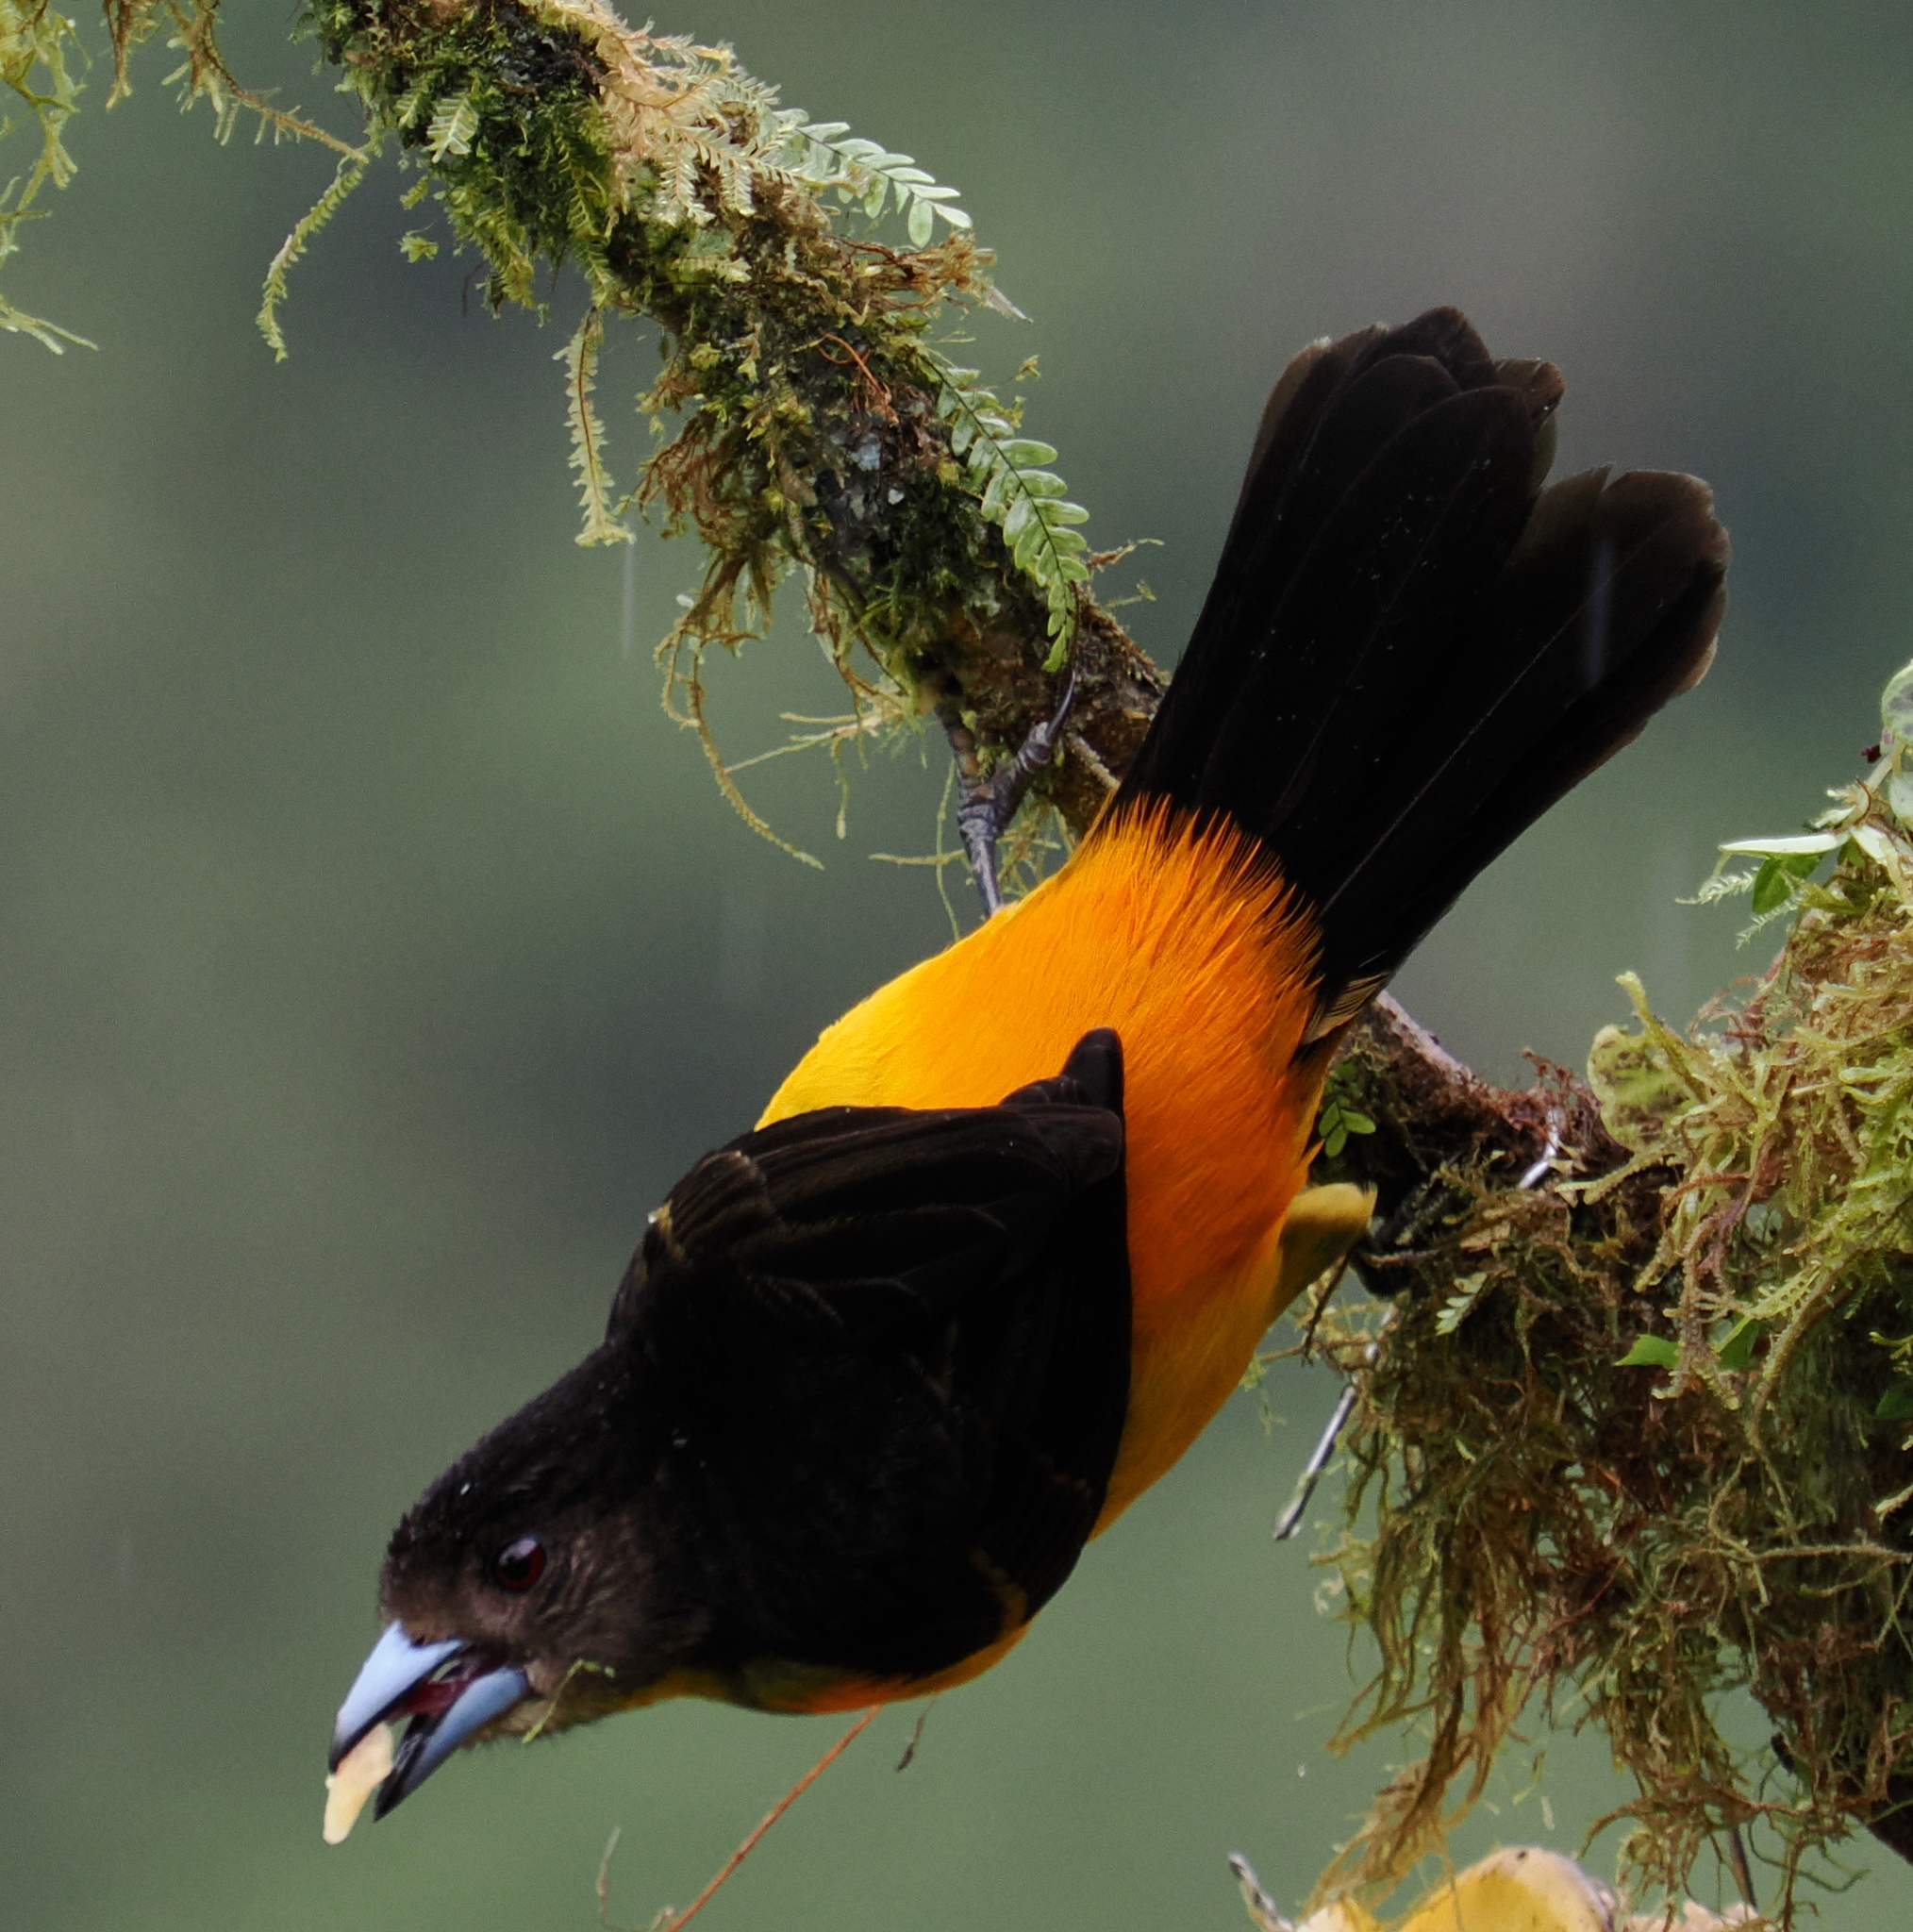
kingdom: Animalia
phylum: Chordata
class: Aves
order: Passeriformes
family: Thraupidae
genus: Ramphocelus
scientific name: Ramphocelus flammigerus
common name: Flame-rumped tanager
